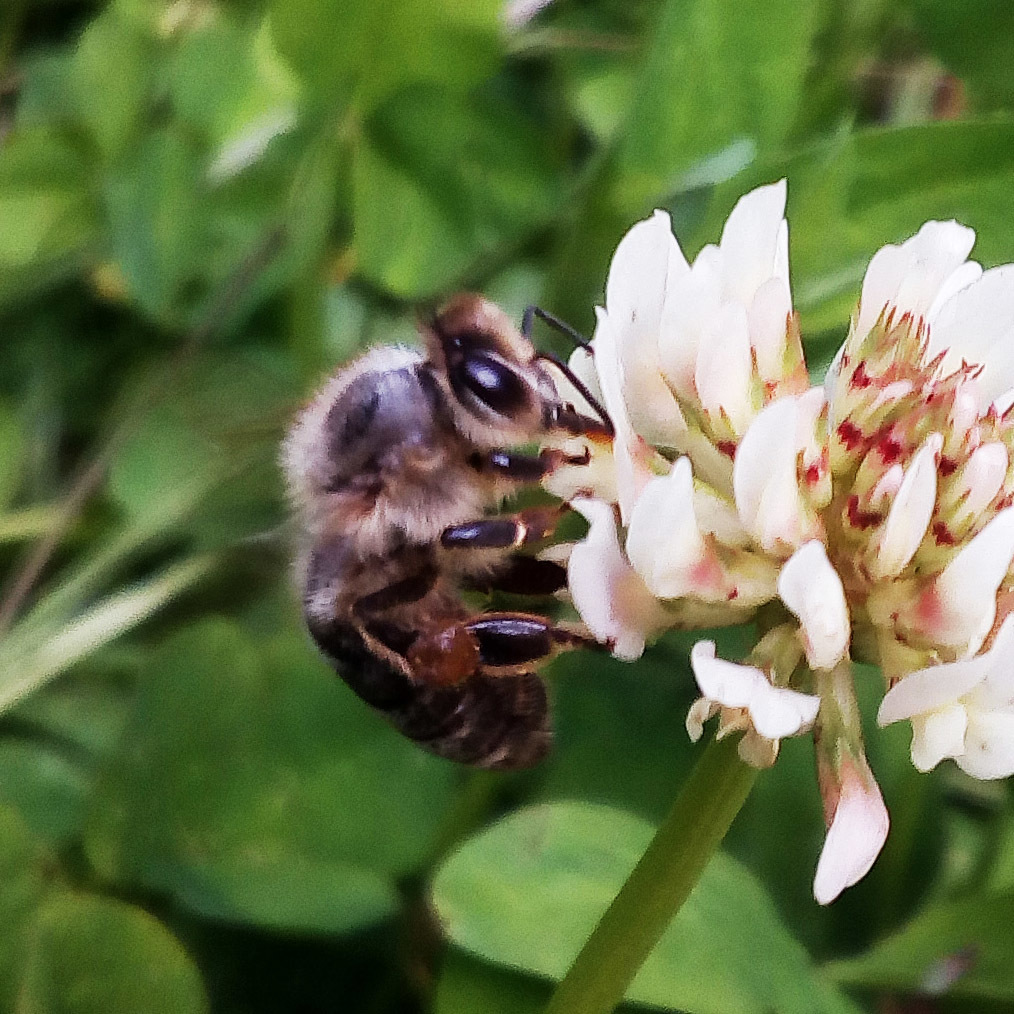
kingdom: Animalia
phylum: Arthropoda
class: Insecta
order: Hymenoptera
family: Apidae
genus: Apis
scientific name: Apis mellifera
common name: Honey bee
